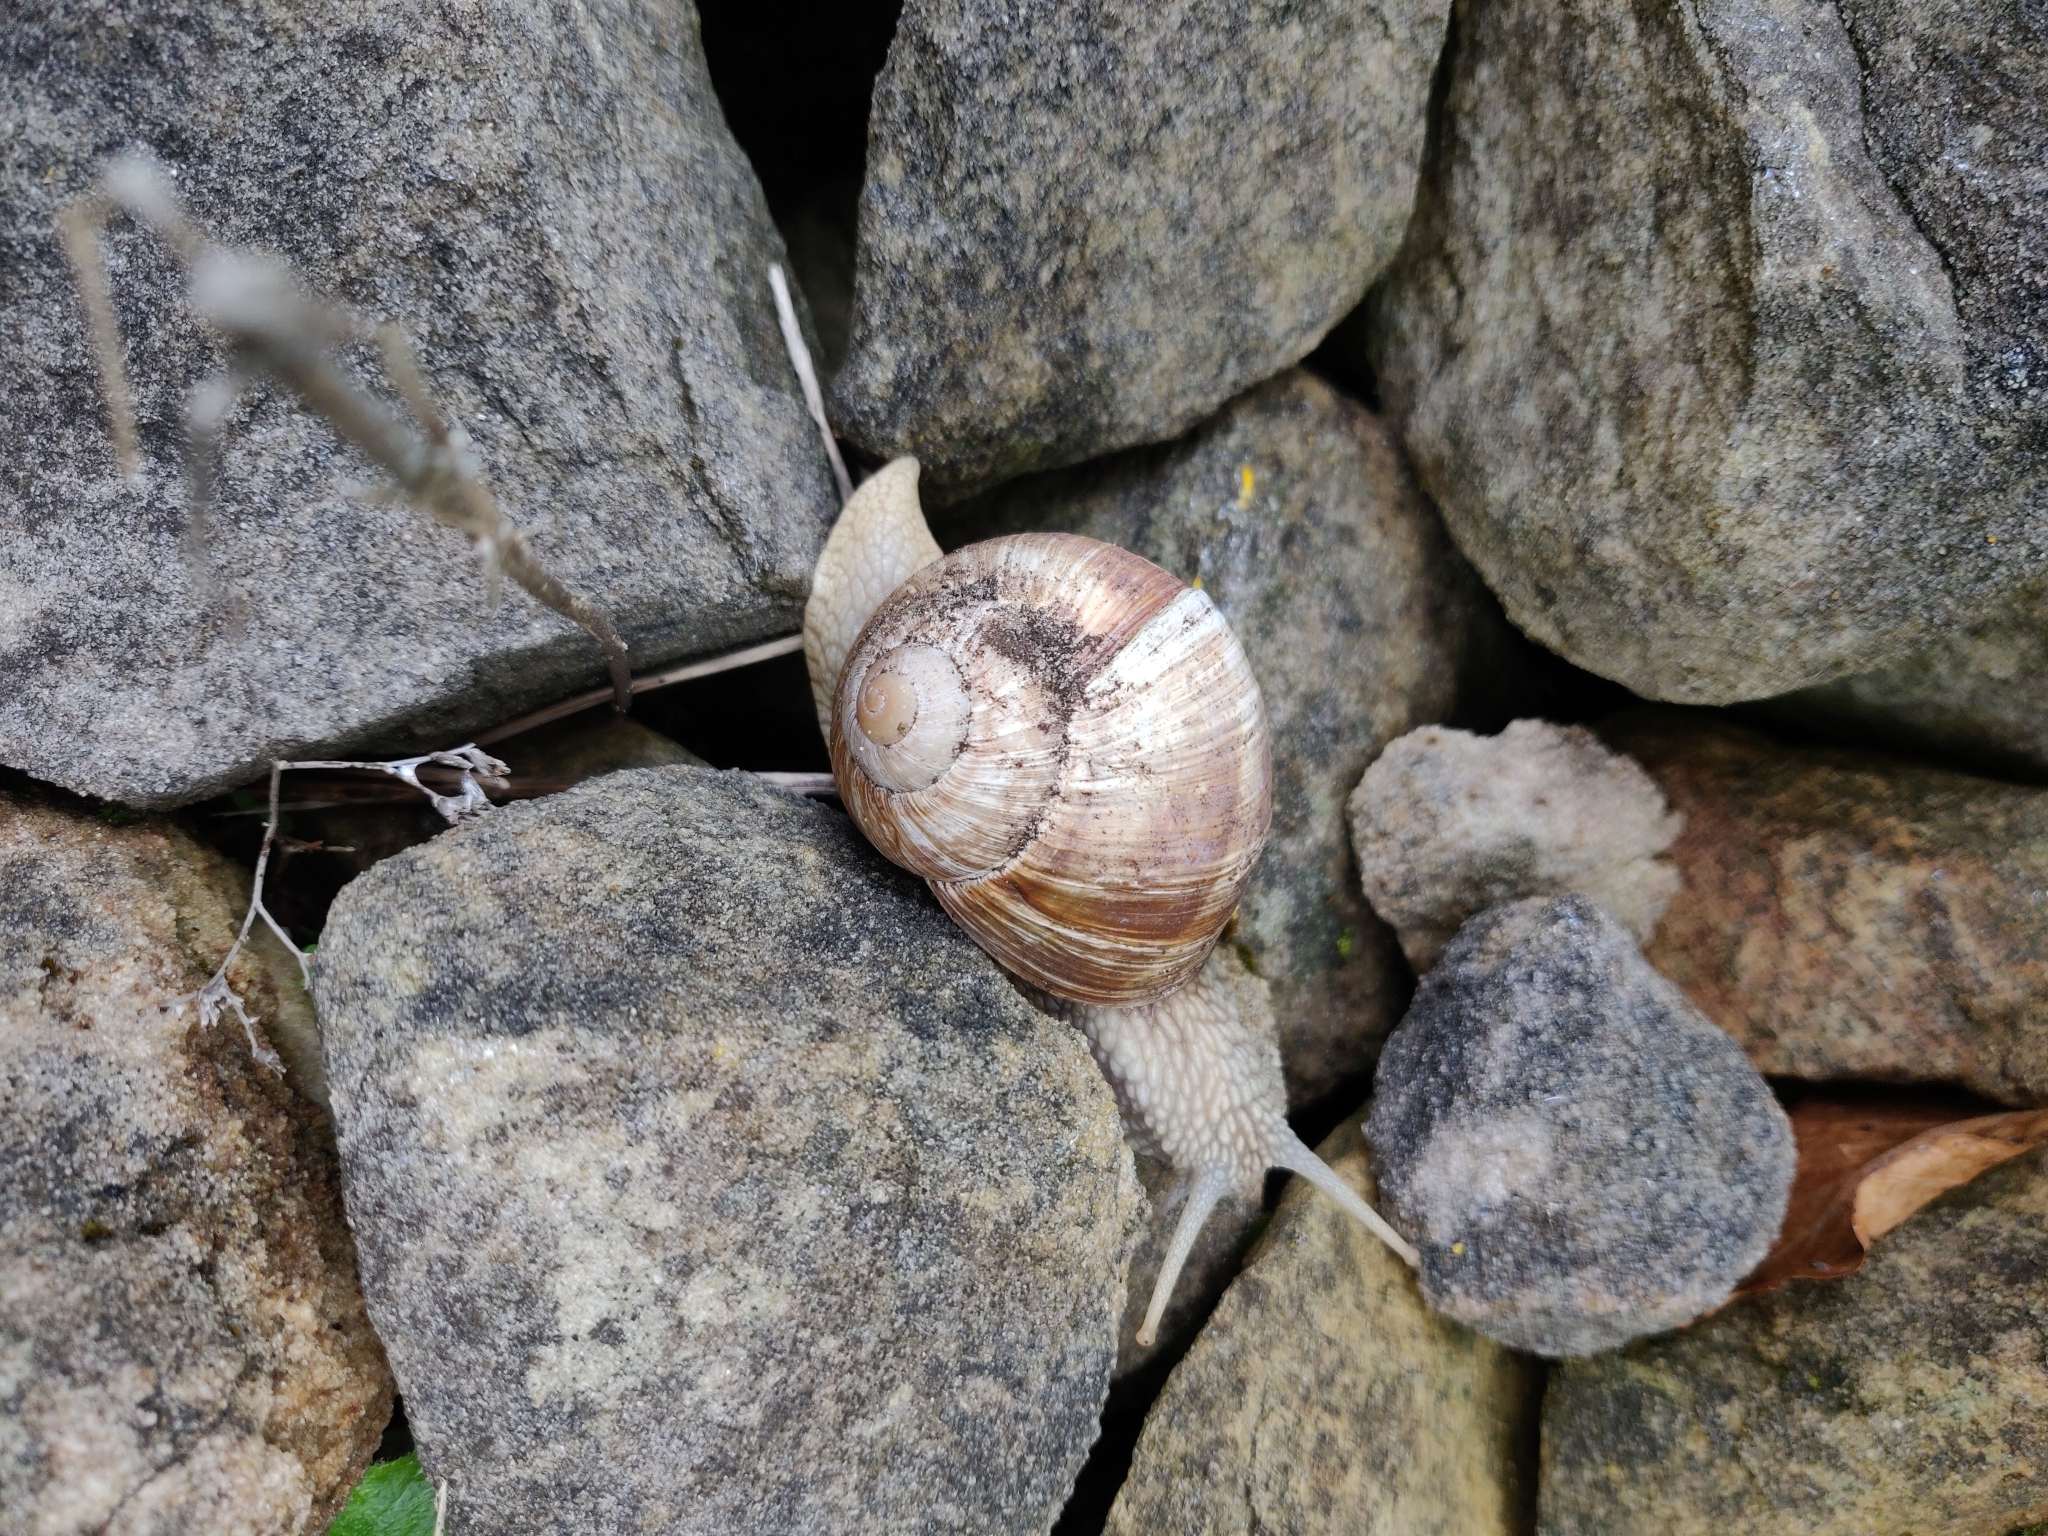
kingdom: Animalia
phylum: Mollusca
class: Gastropoda
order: Stylommatophora
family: Helicidae
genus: Helix
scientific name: Helix pomatia
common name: Roman snail
